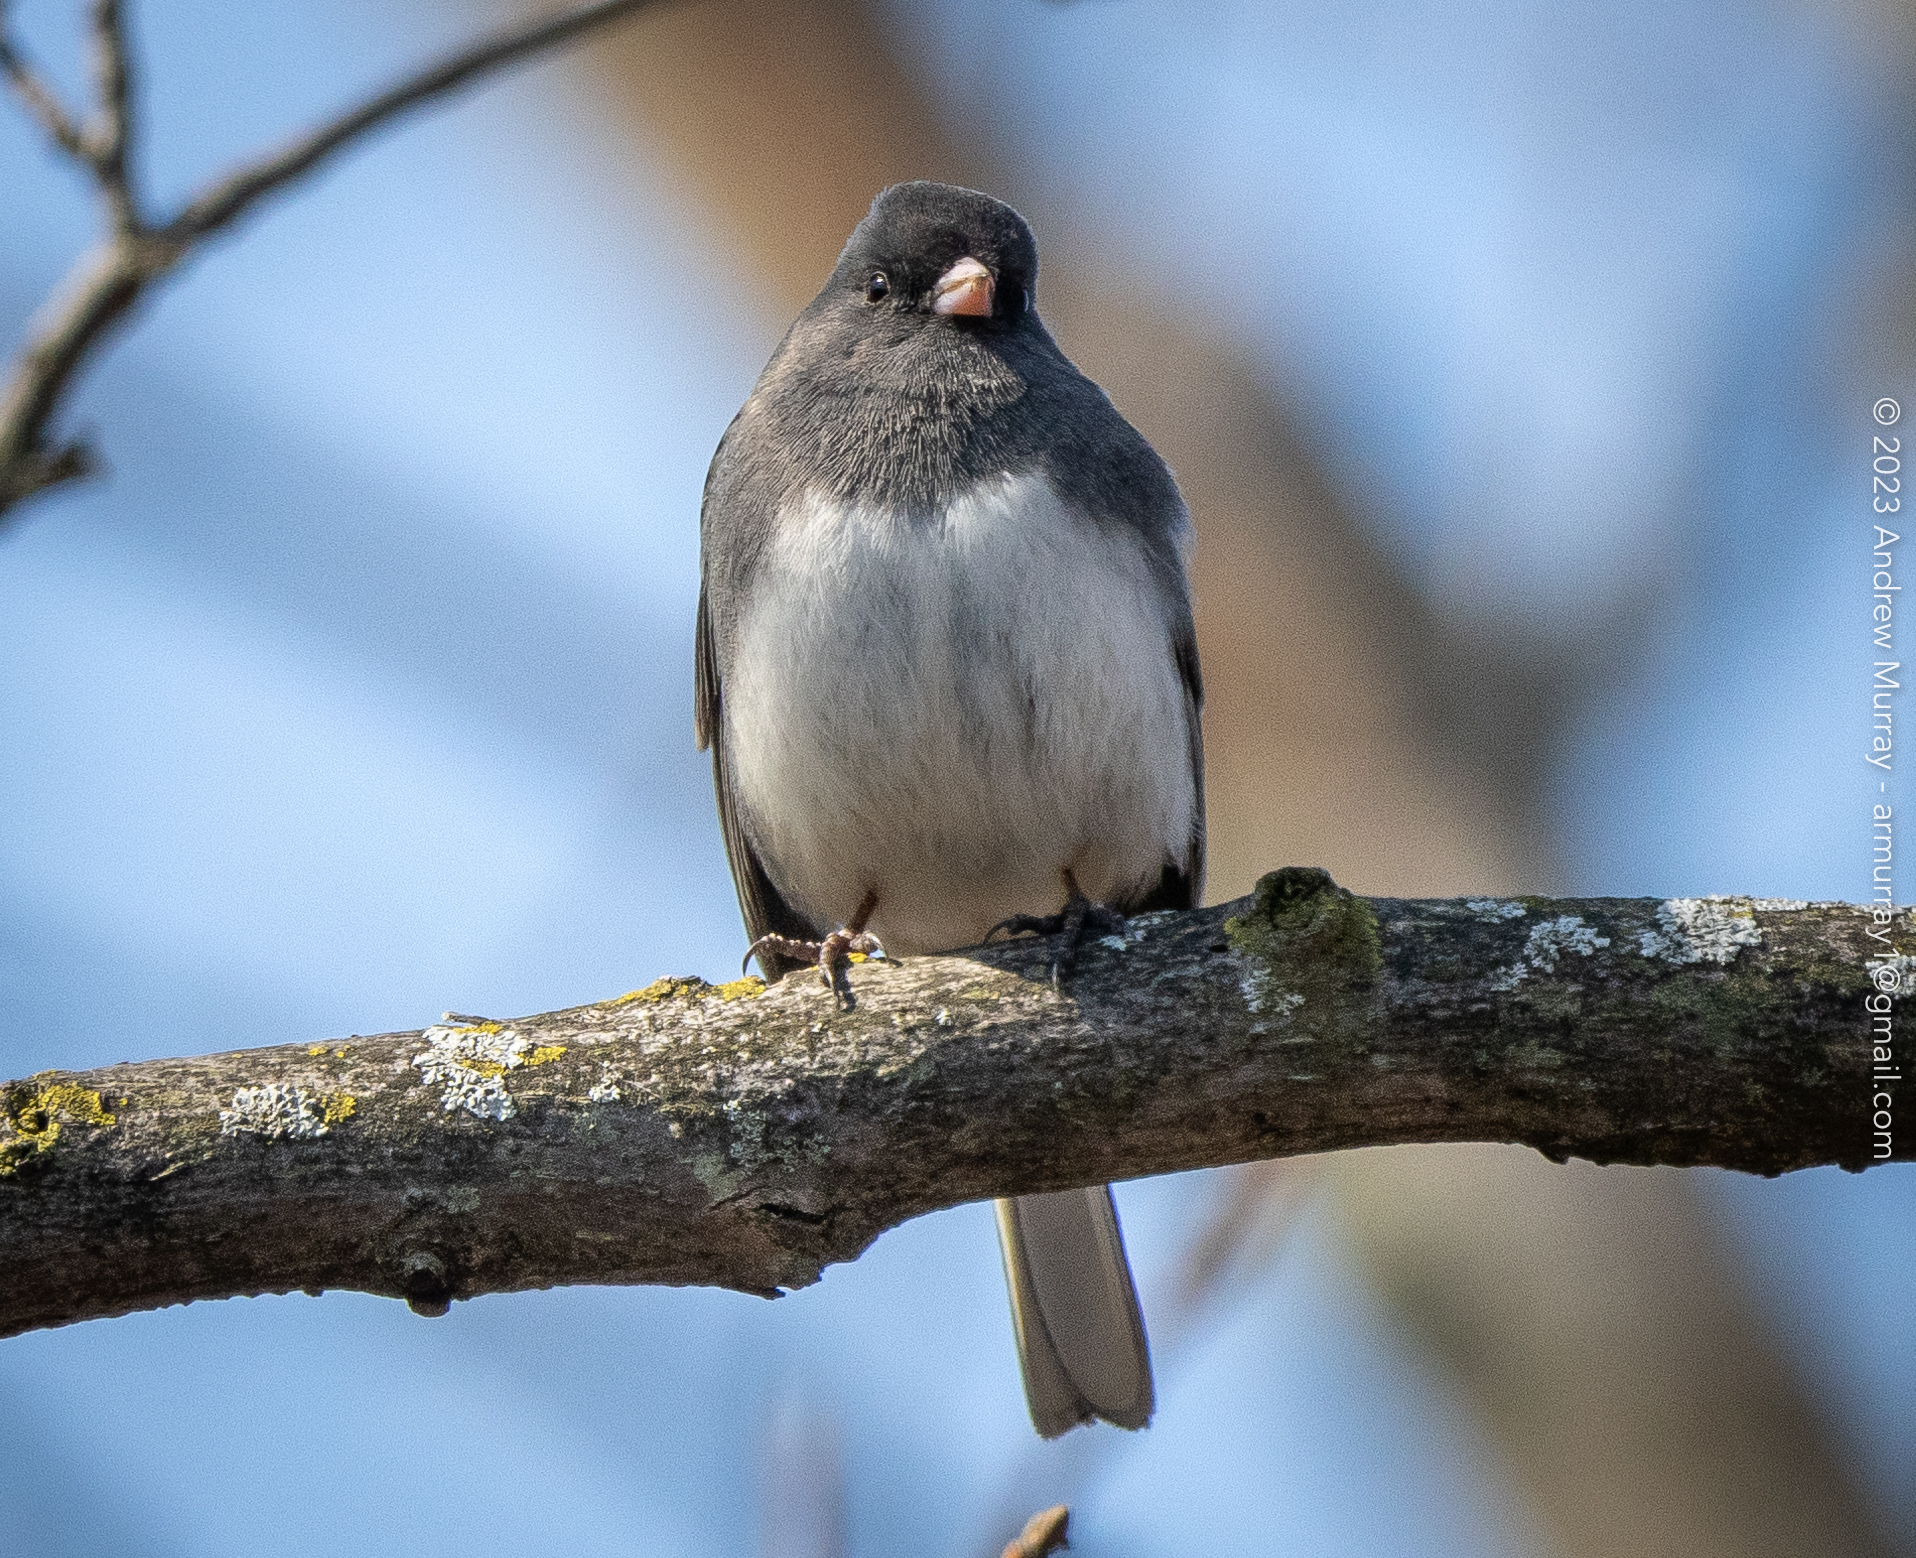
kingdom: Animalia
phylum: Chordata
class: Aves
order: Passeriformes
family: Passerellidae
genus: Junco
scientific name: Junco hyemalis
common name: Dark-eyed junco
